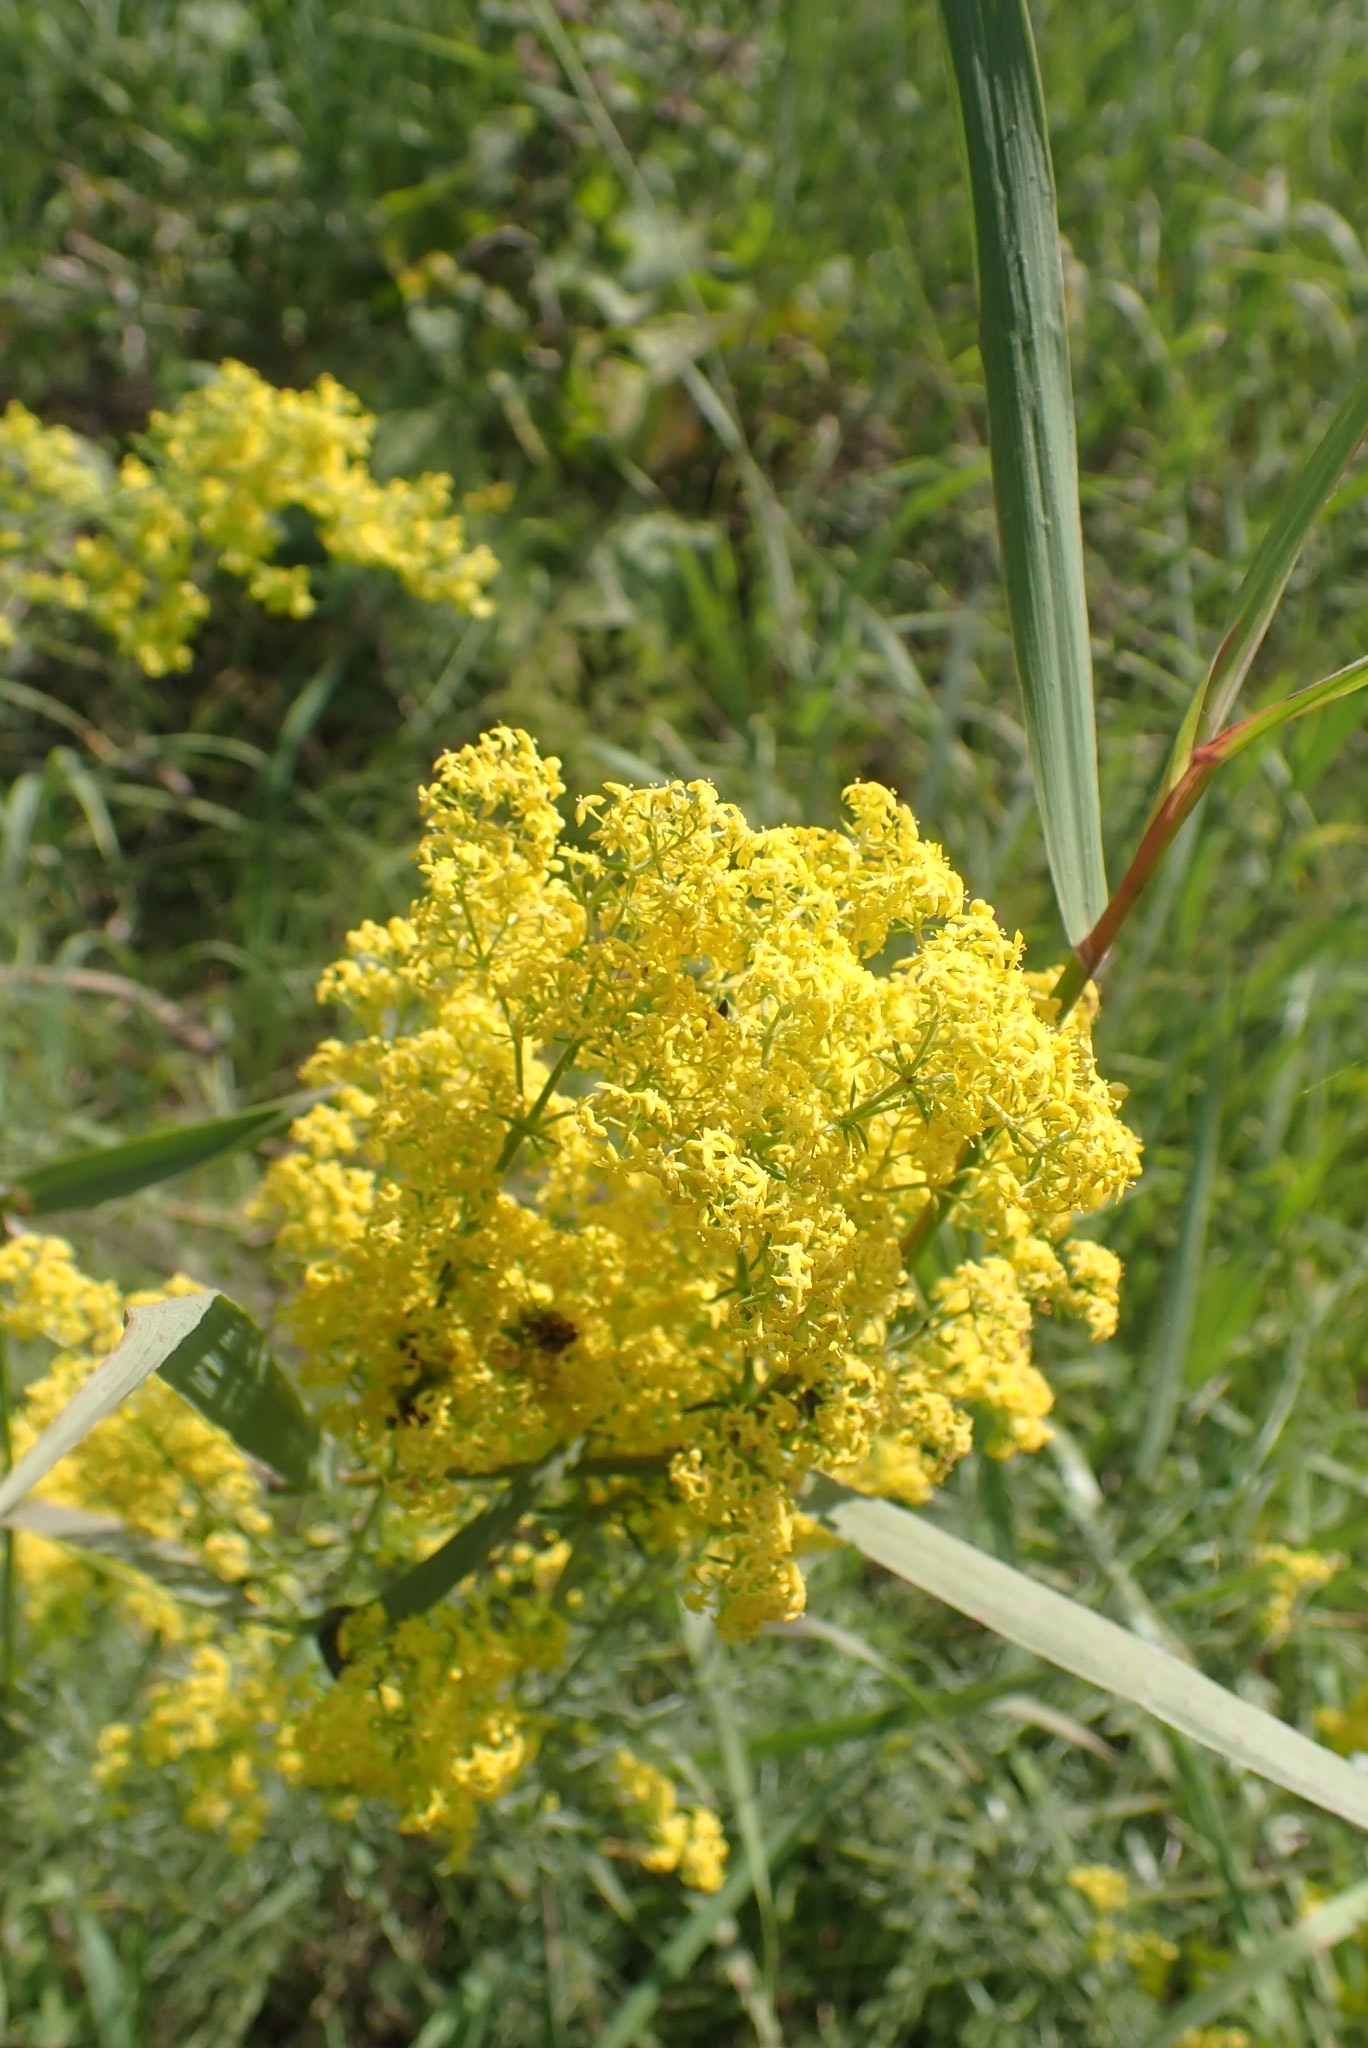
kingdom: Plantae
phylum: Tracheophyta
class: Magnoliopsida
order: Gentianales
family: Rubiaceae
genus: Galium
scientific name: Galium verum
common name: Lady's bedstraw
